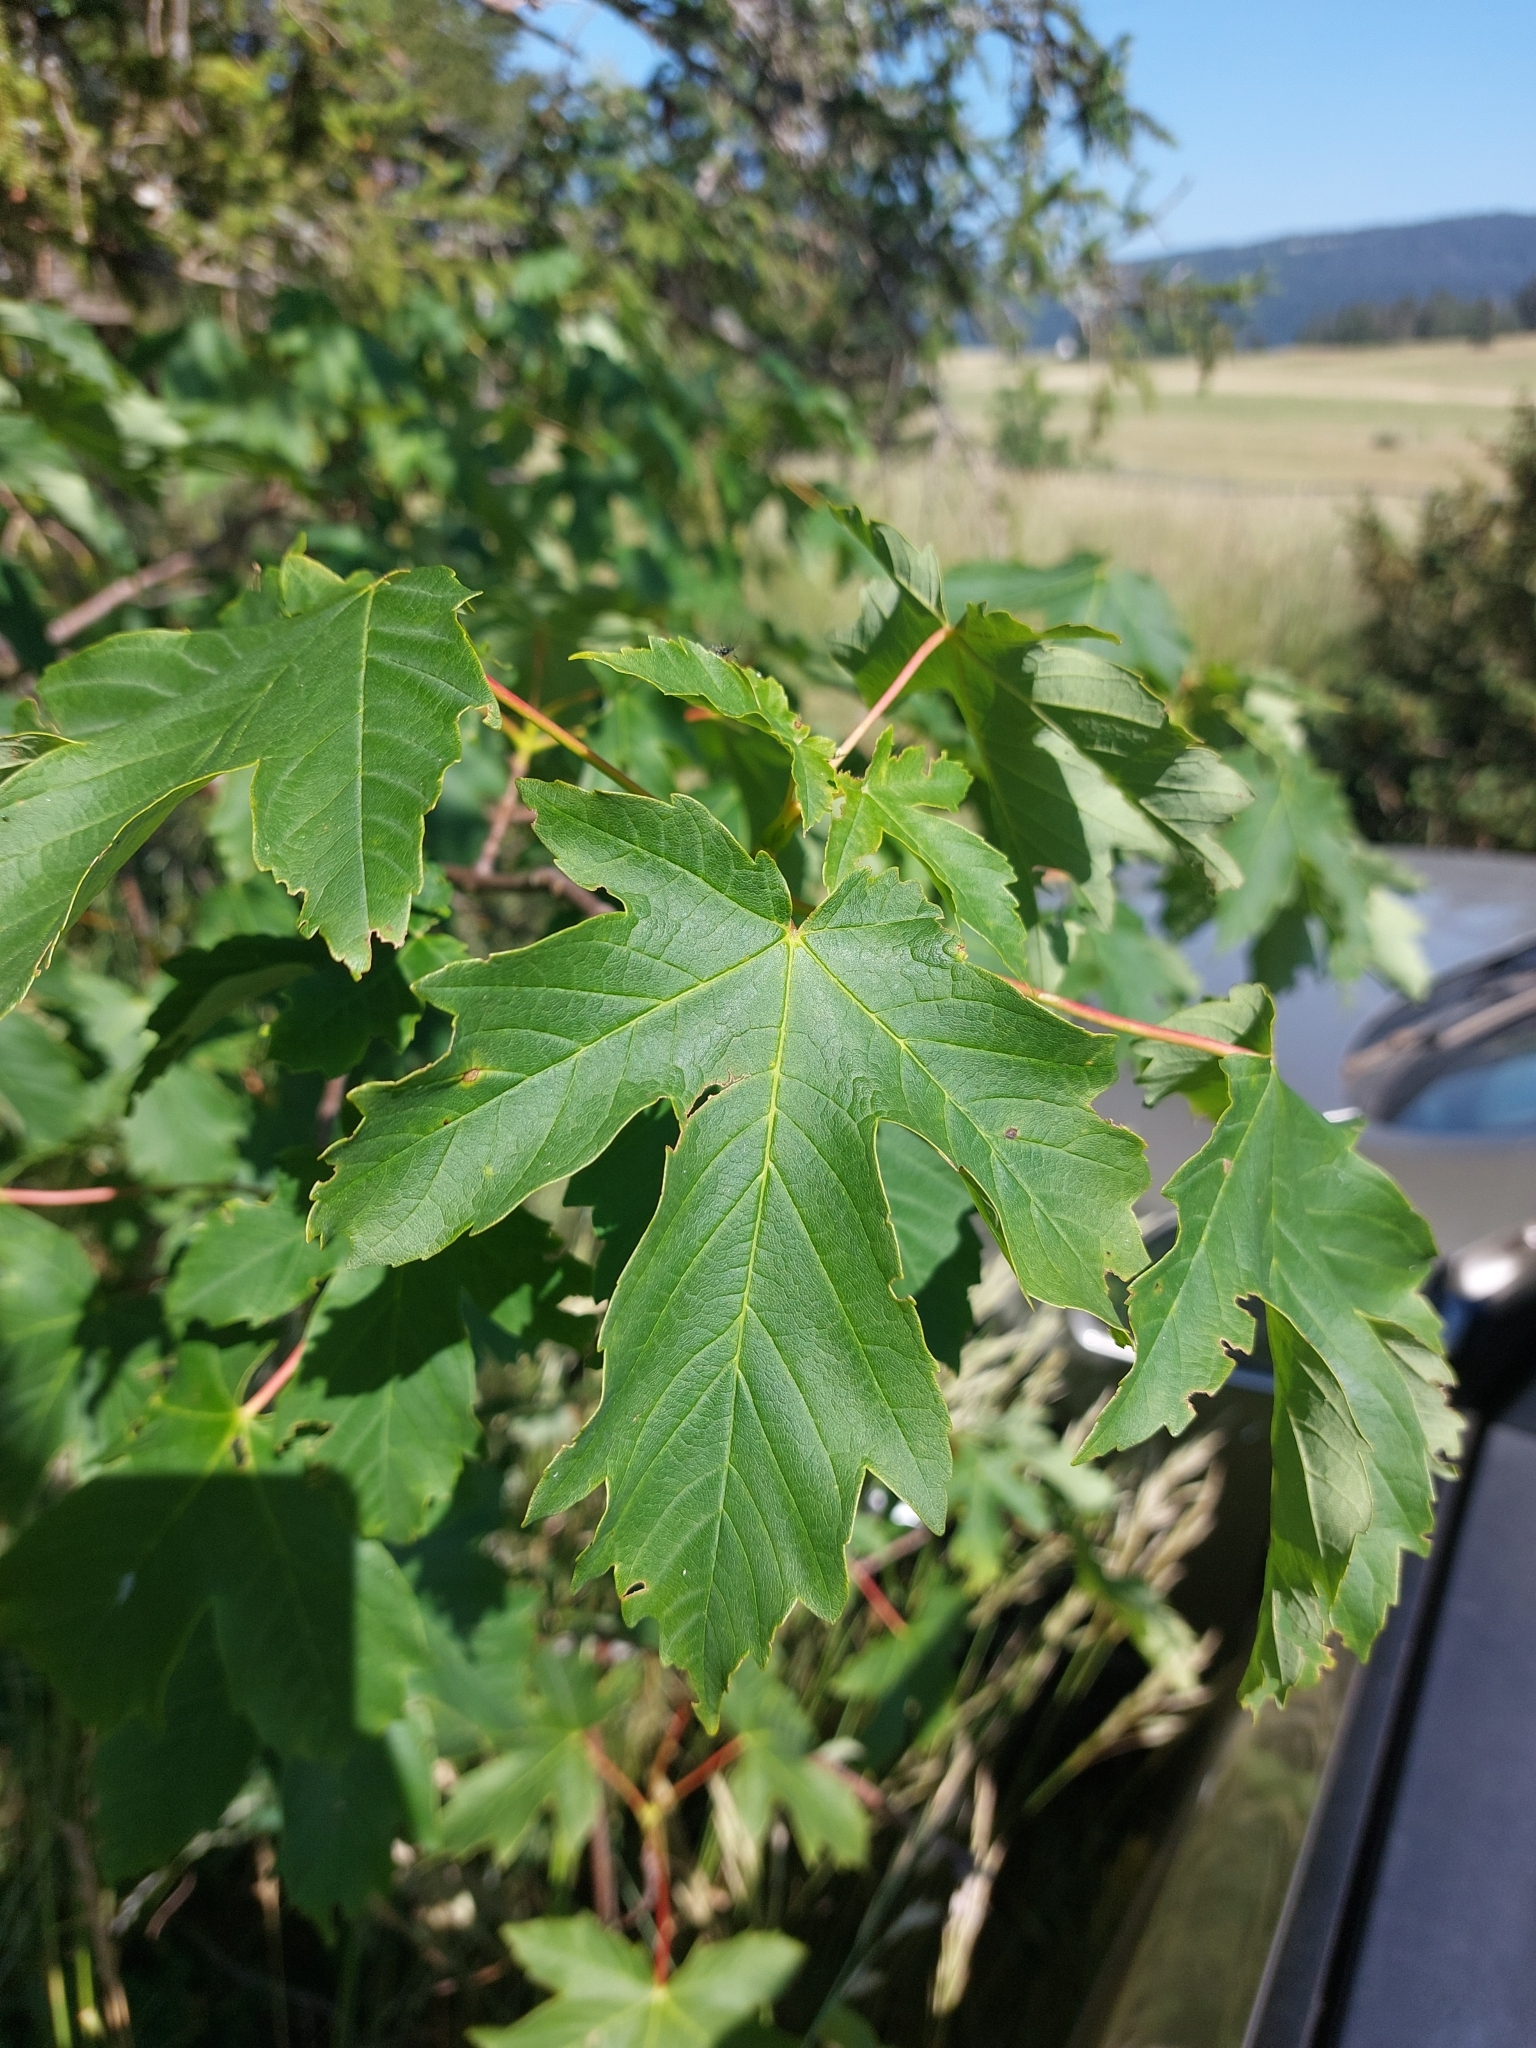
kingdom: Plantae
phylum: Tracheophyta
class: Magnoliopsida
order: Sapindales
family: Sapindaceae
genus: Acer
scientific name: Acer pseudoplatanus
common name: Sycamore
